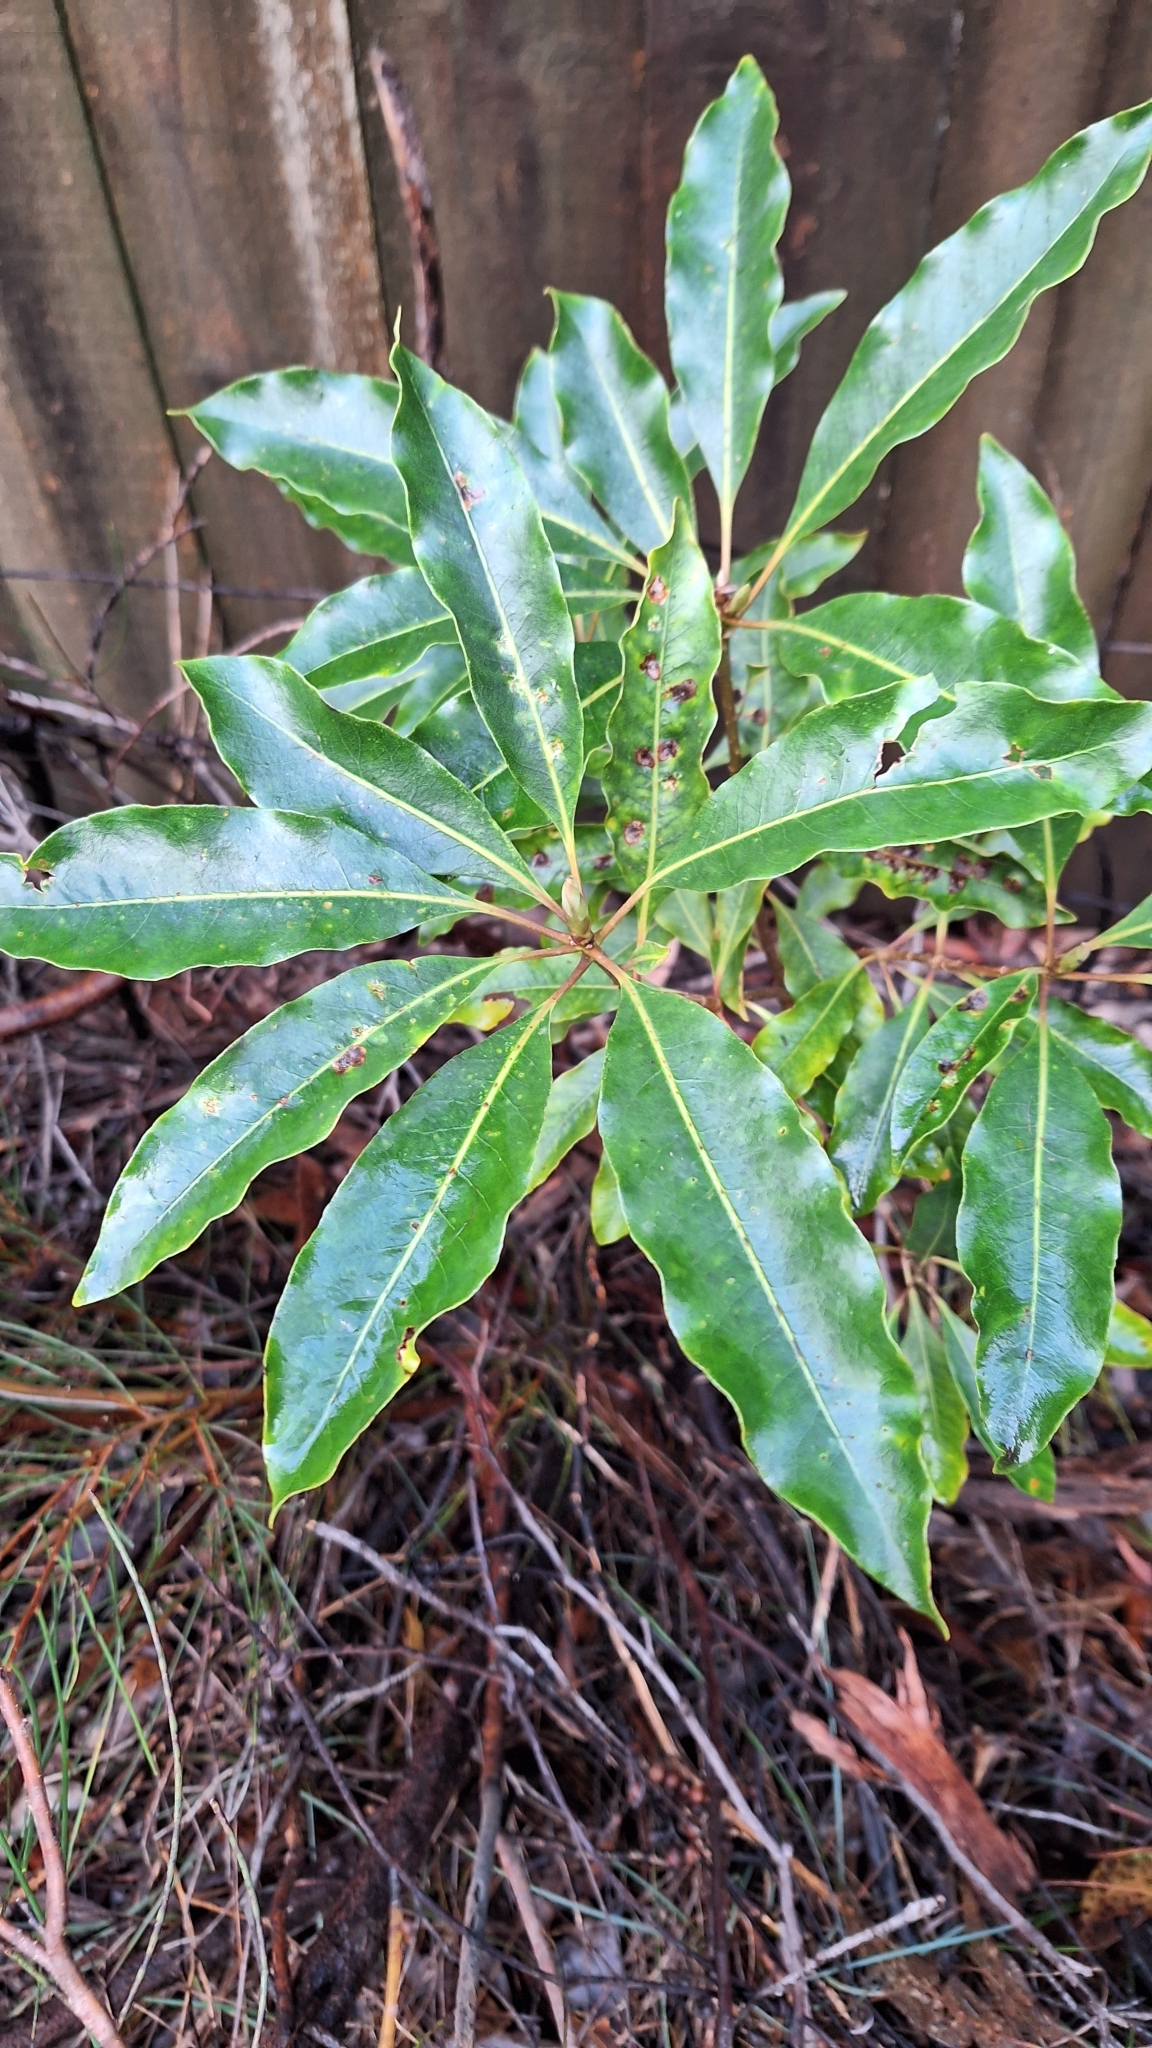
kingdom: Plantae
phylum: Tracheophyta
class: Magnoliopsida
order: Apiales
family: Pittosporaceae
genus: Pittosporum
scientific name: Pittosporum undulatum
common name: Australian cheesewood
